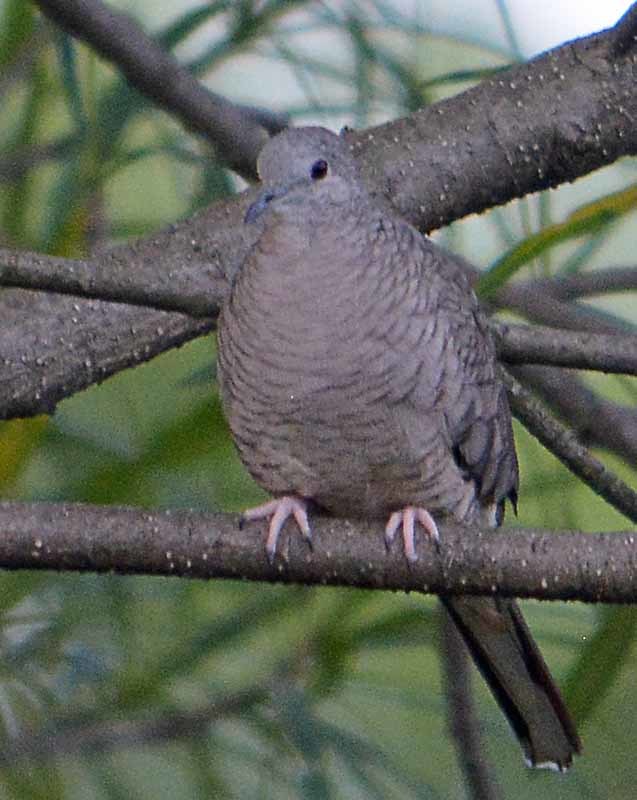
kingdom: Animalia
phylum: Chordata
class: Aves
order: Columbiformes
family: Columbidae
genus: Columbina
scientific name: Columbina inca
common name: Inca dove
